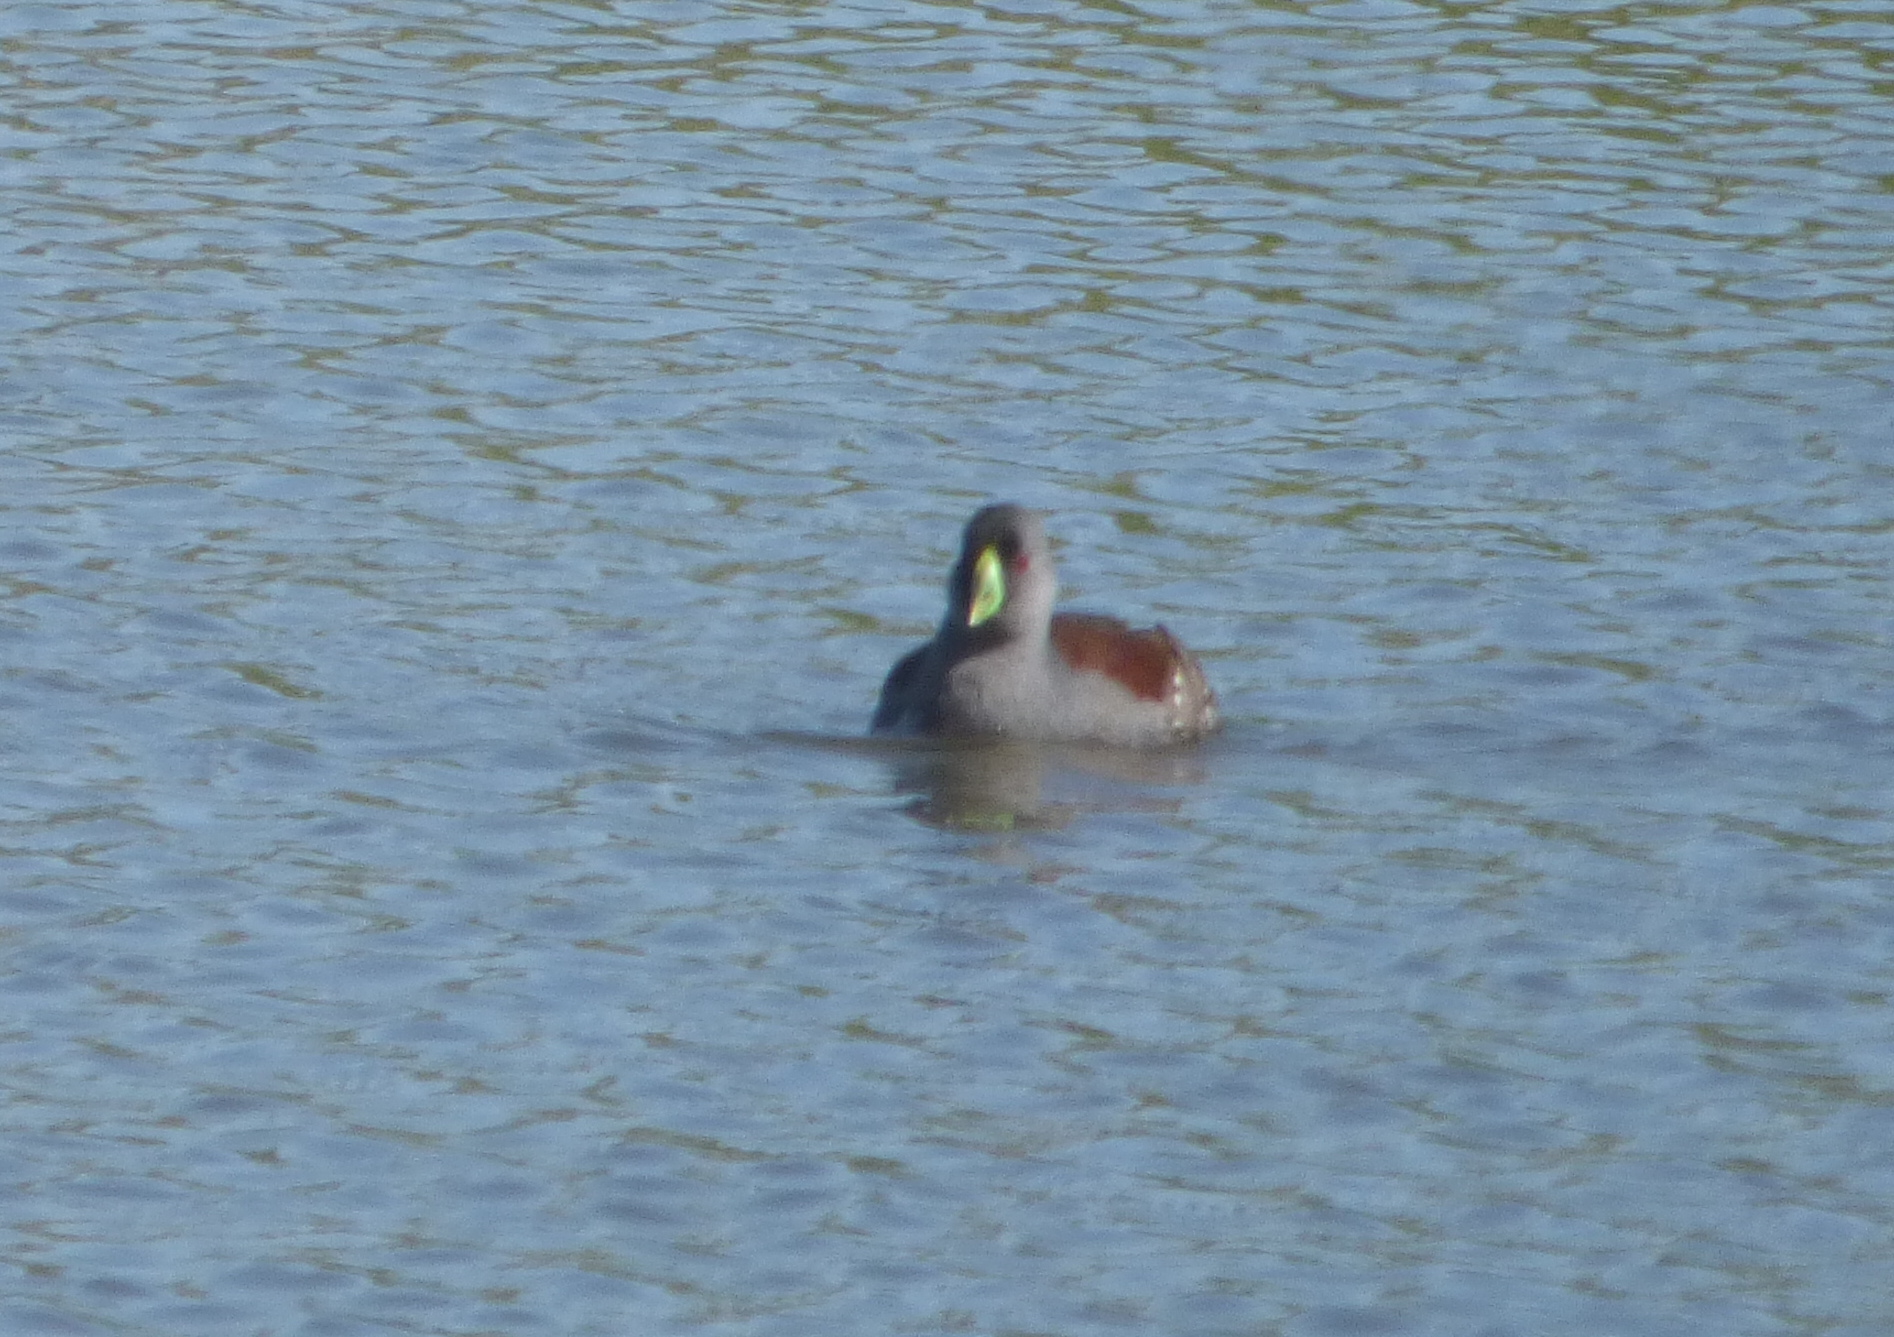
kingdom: Animalia
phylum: Chordata
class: Aves
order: Gruiformes
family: Rallidae
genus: Gallinula
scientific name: Gallinula melanops
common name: Spot-flanked gallinule
